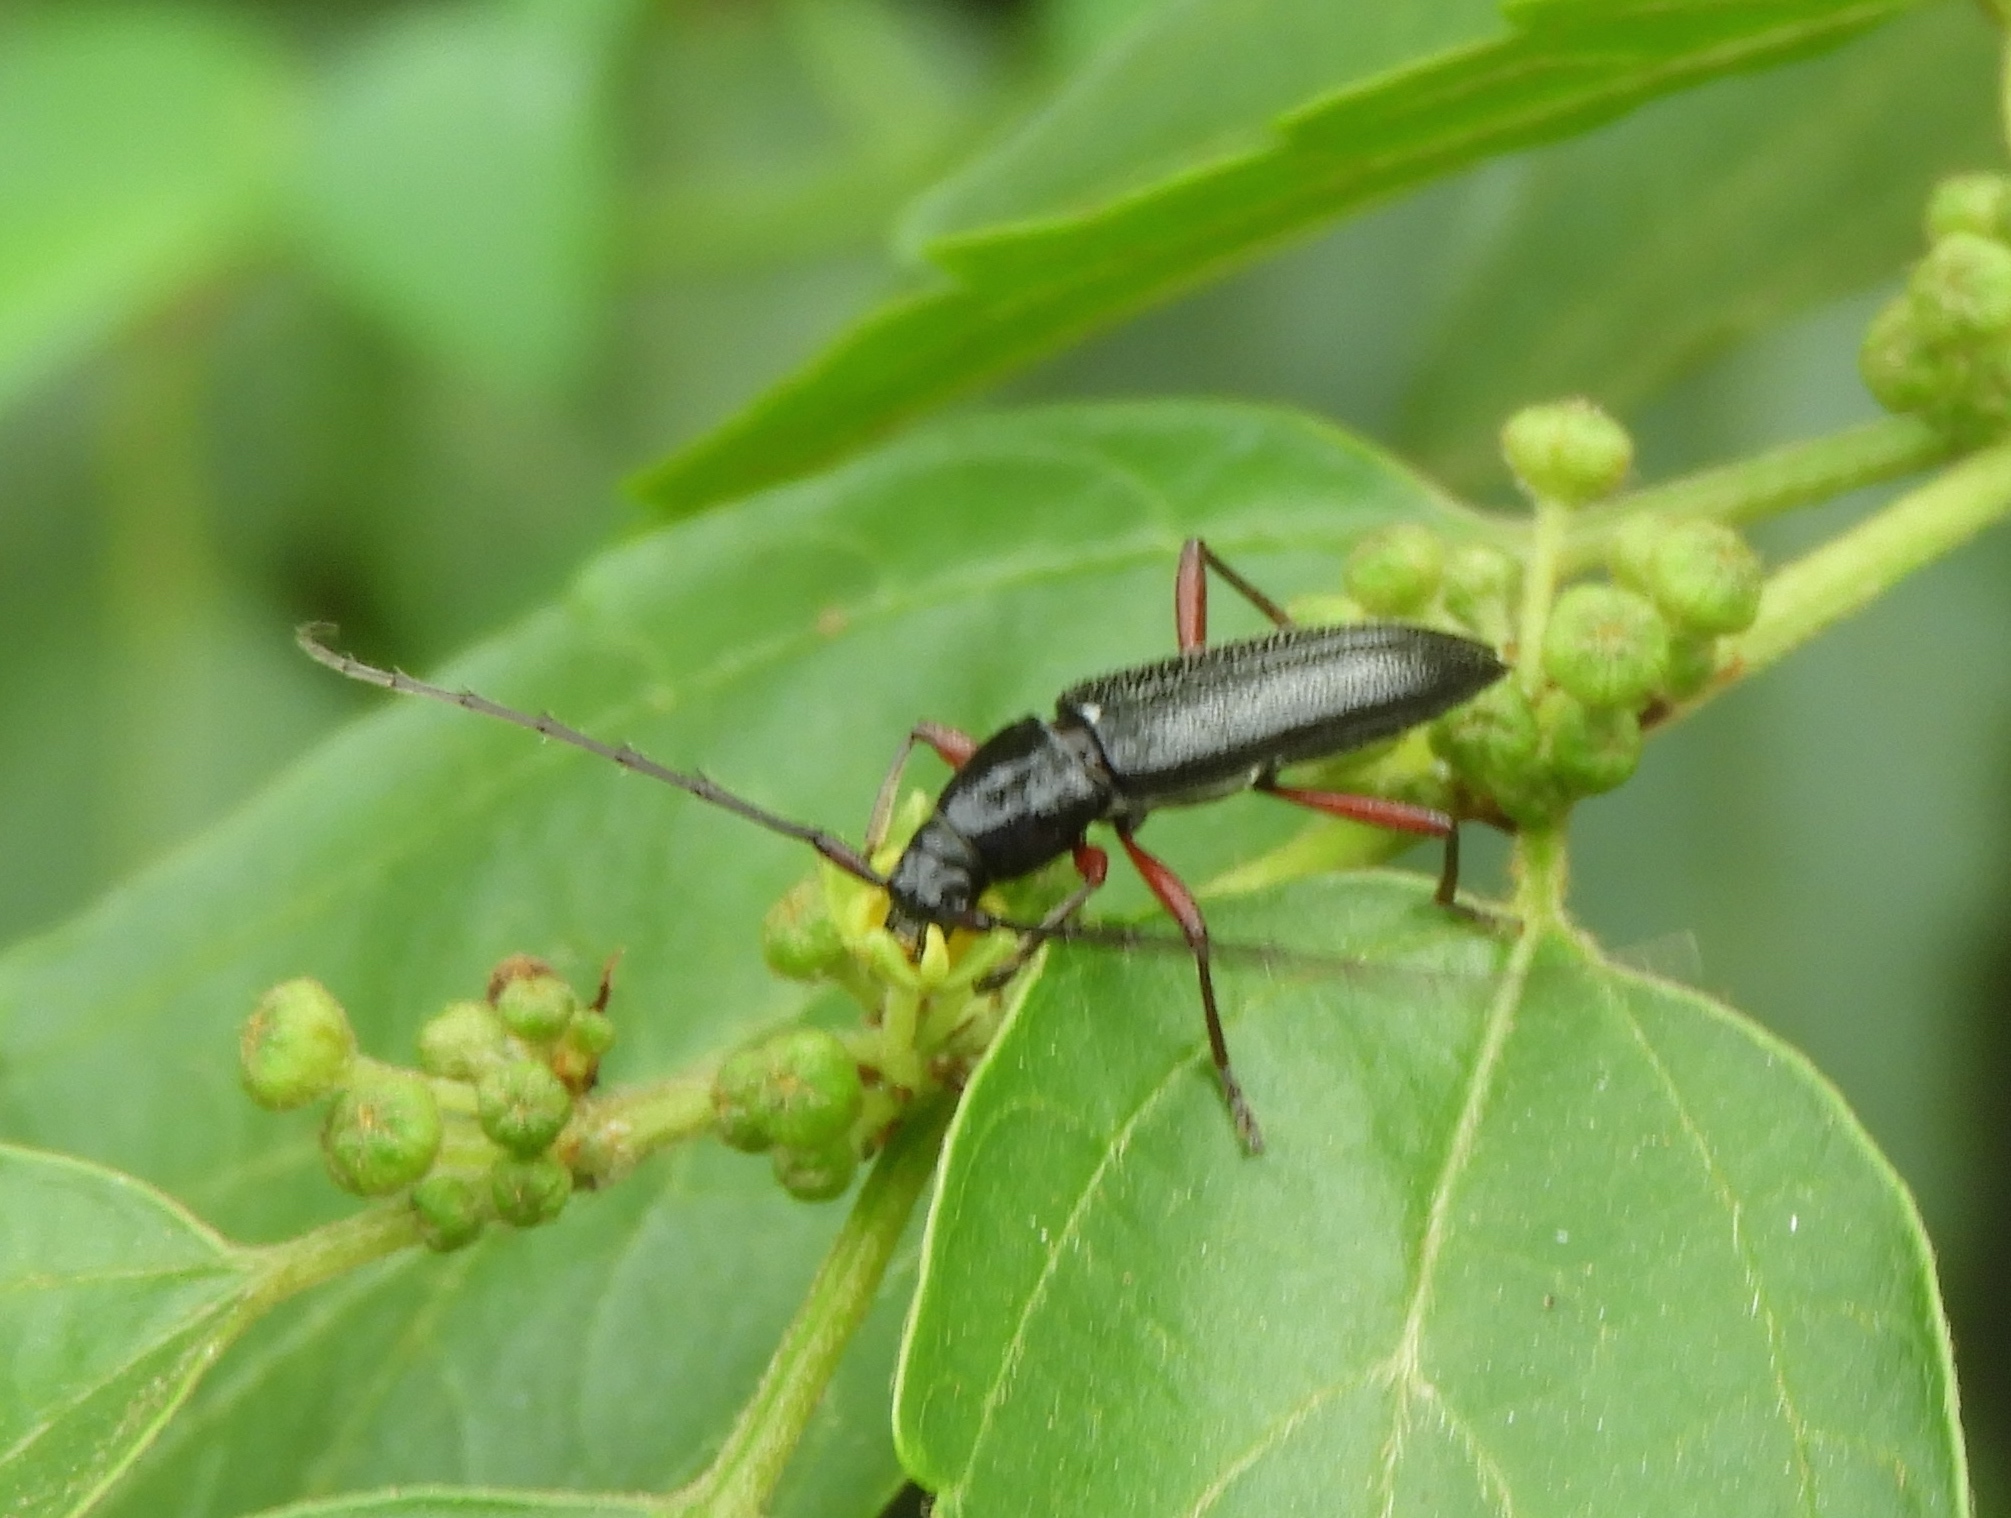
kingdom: Animalia
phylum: Arthropoda
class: Insecta
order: Coleoptera
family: Cerambycidae
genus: Stenosphenus
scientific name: Stenosphenus
